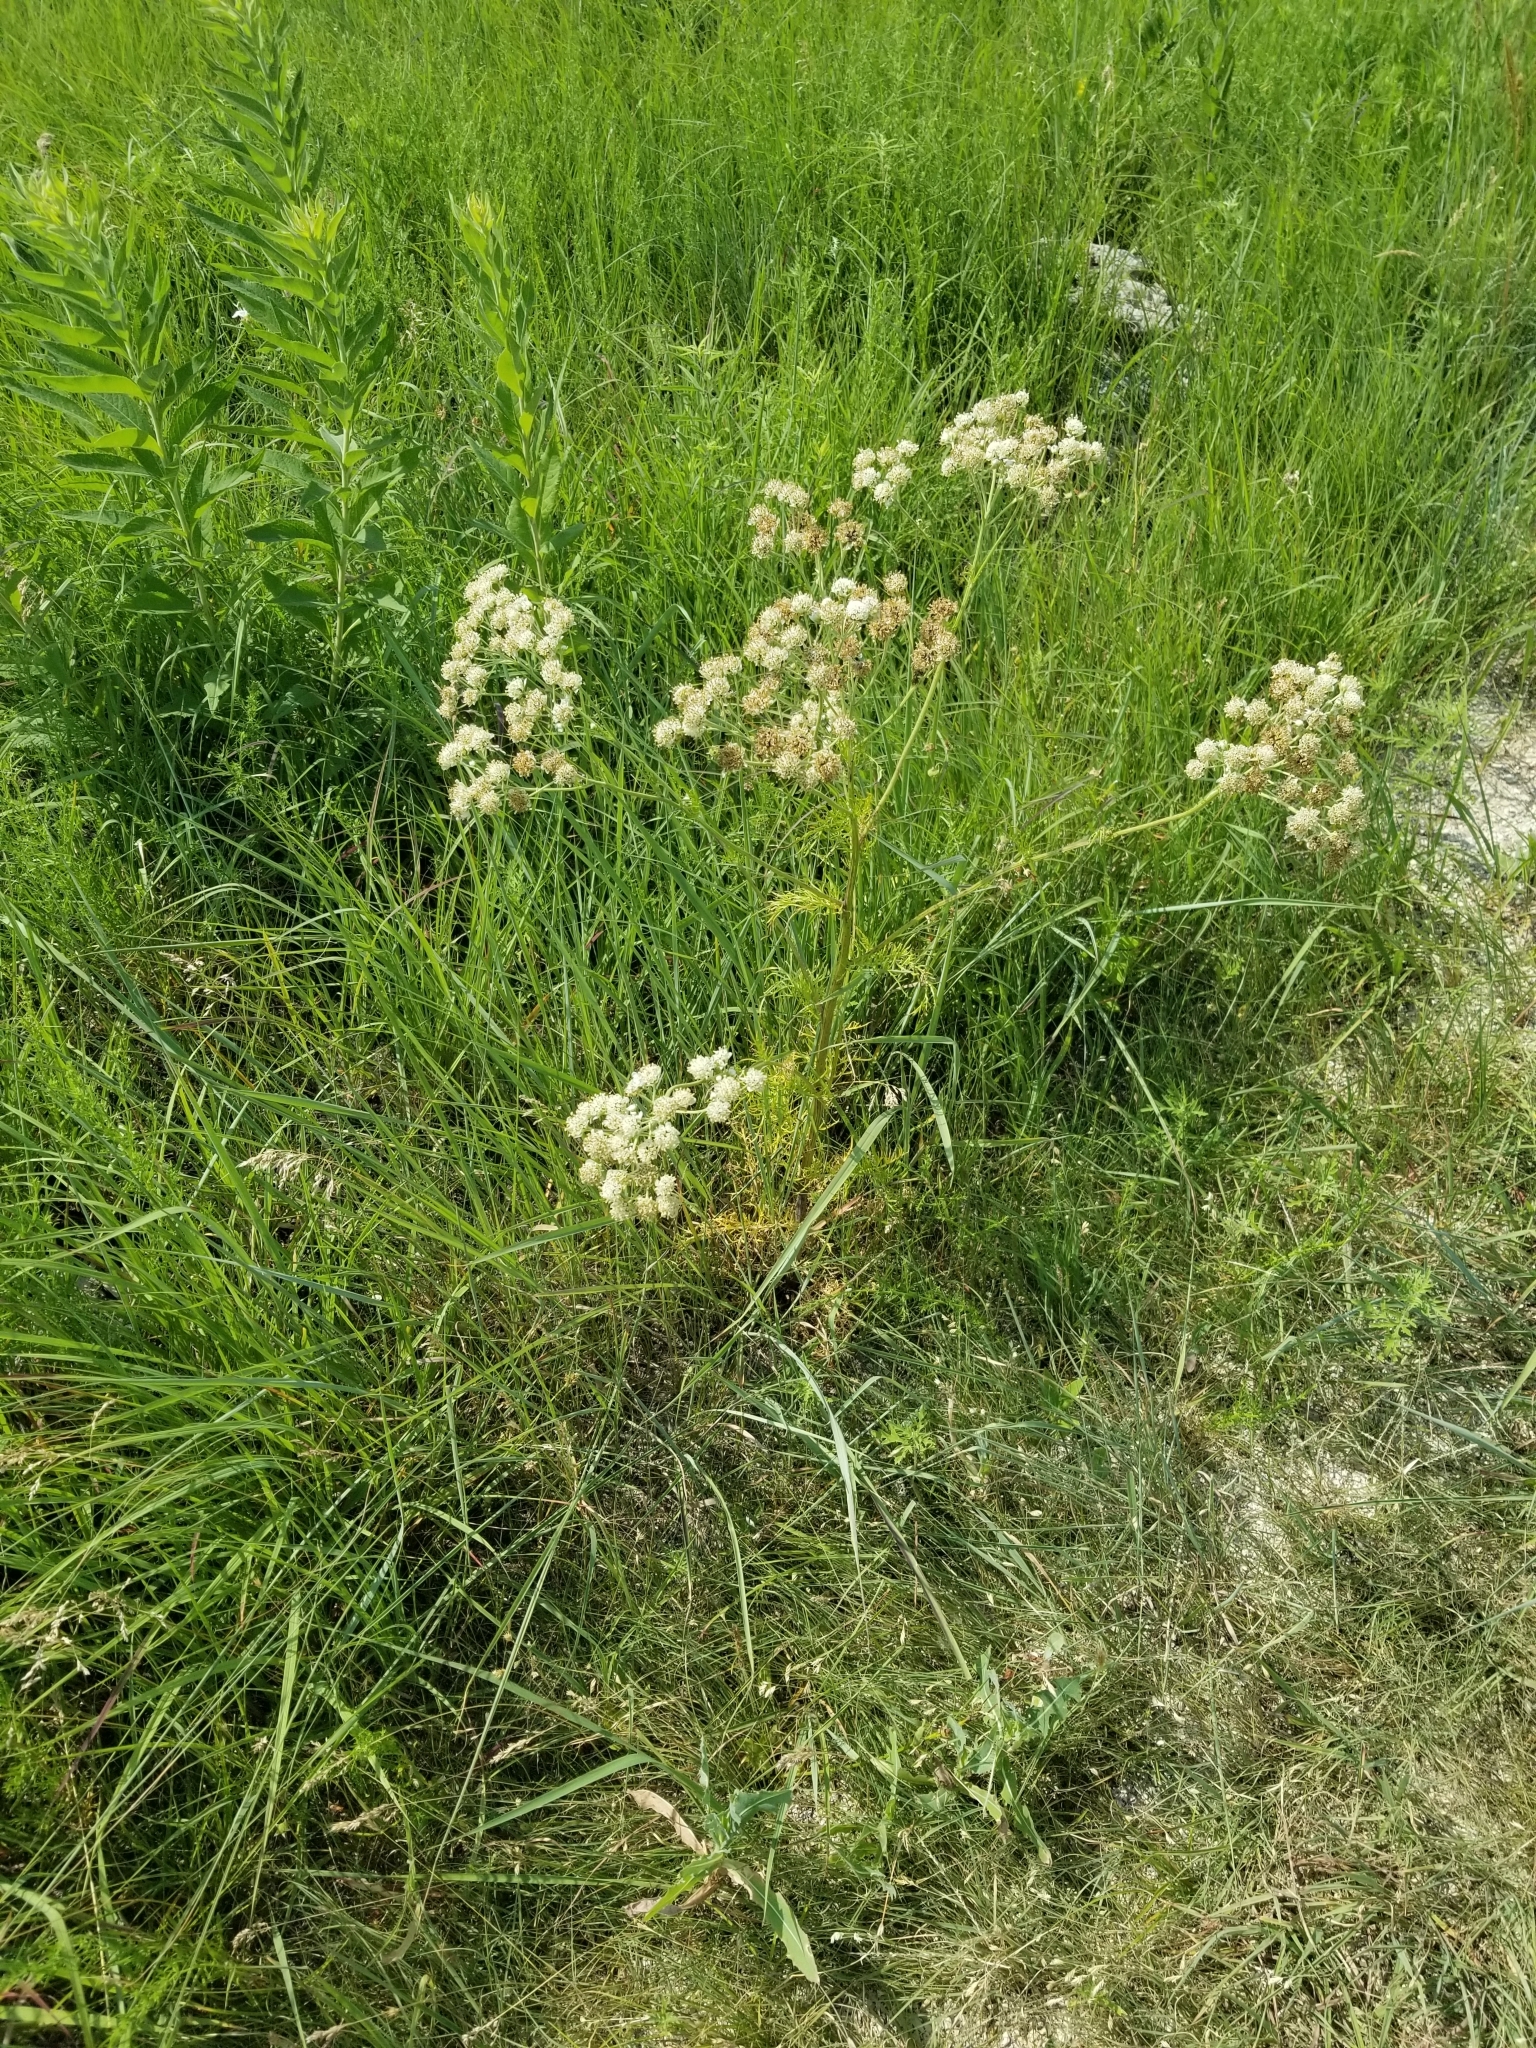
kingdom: Plantae
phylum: Tracheophyta
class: Magnoliopsida
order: Asterales
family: Asteraceae
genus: Hymenopappus
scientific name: Hymenopappus scabiosaeus
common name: Carolina woollywhite
